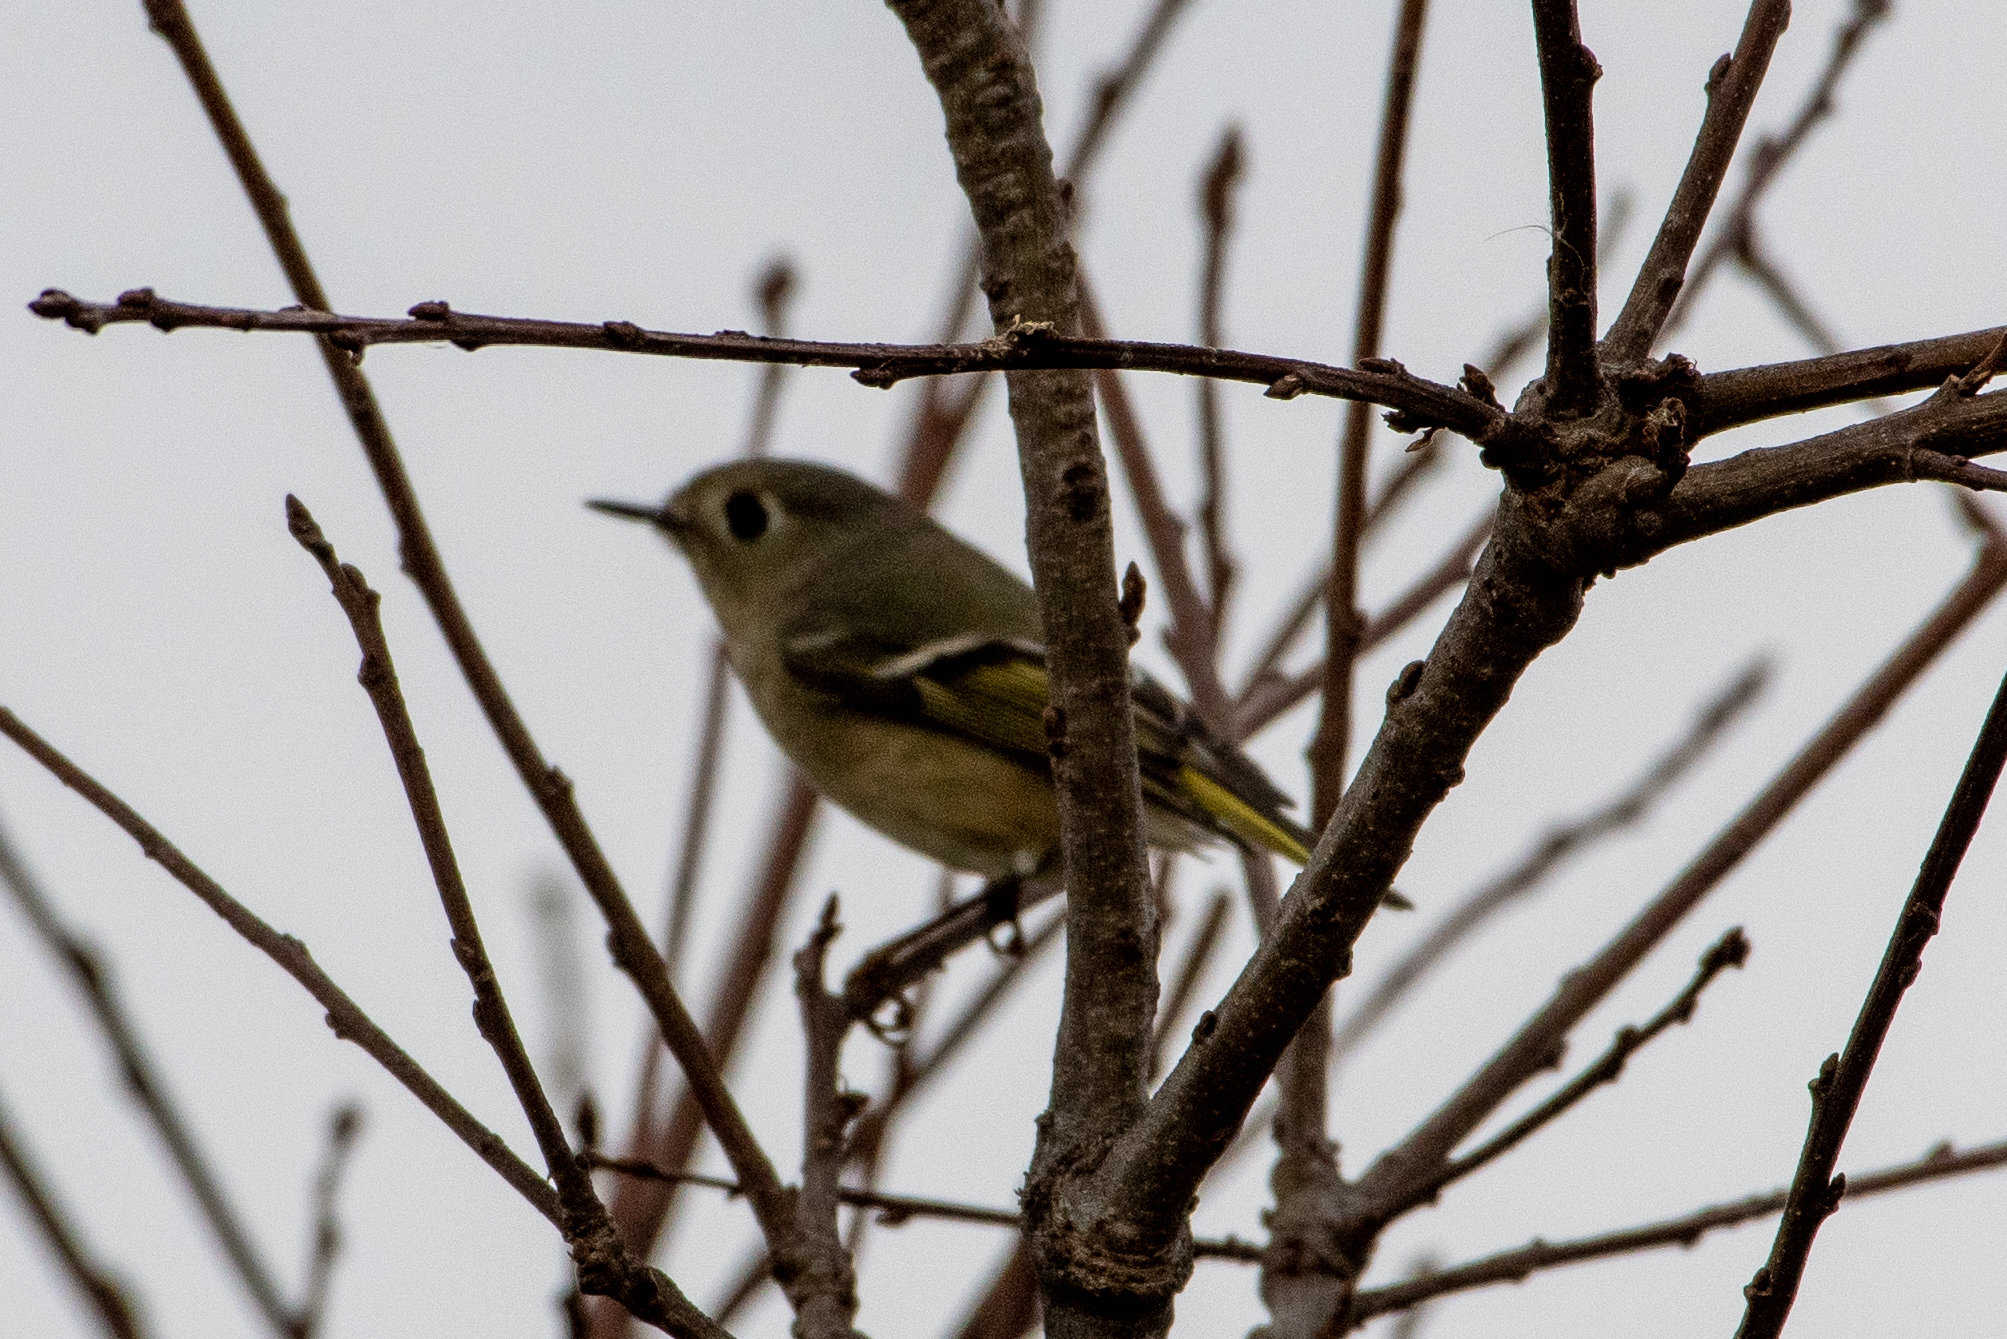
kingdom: Animalia
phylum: Chordata
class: Aves
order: Passeriformes
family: Regulidae
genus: Regulus
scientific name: Regulus calendula
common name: Ruby-crowned kinglet
